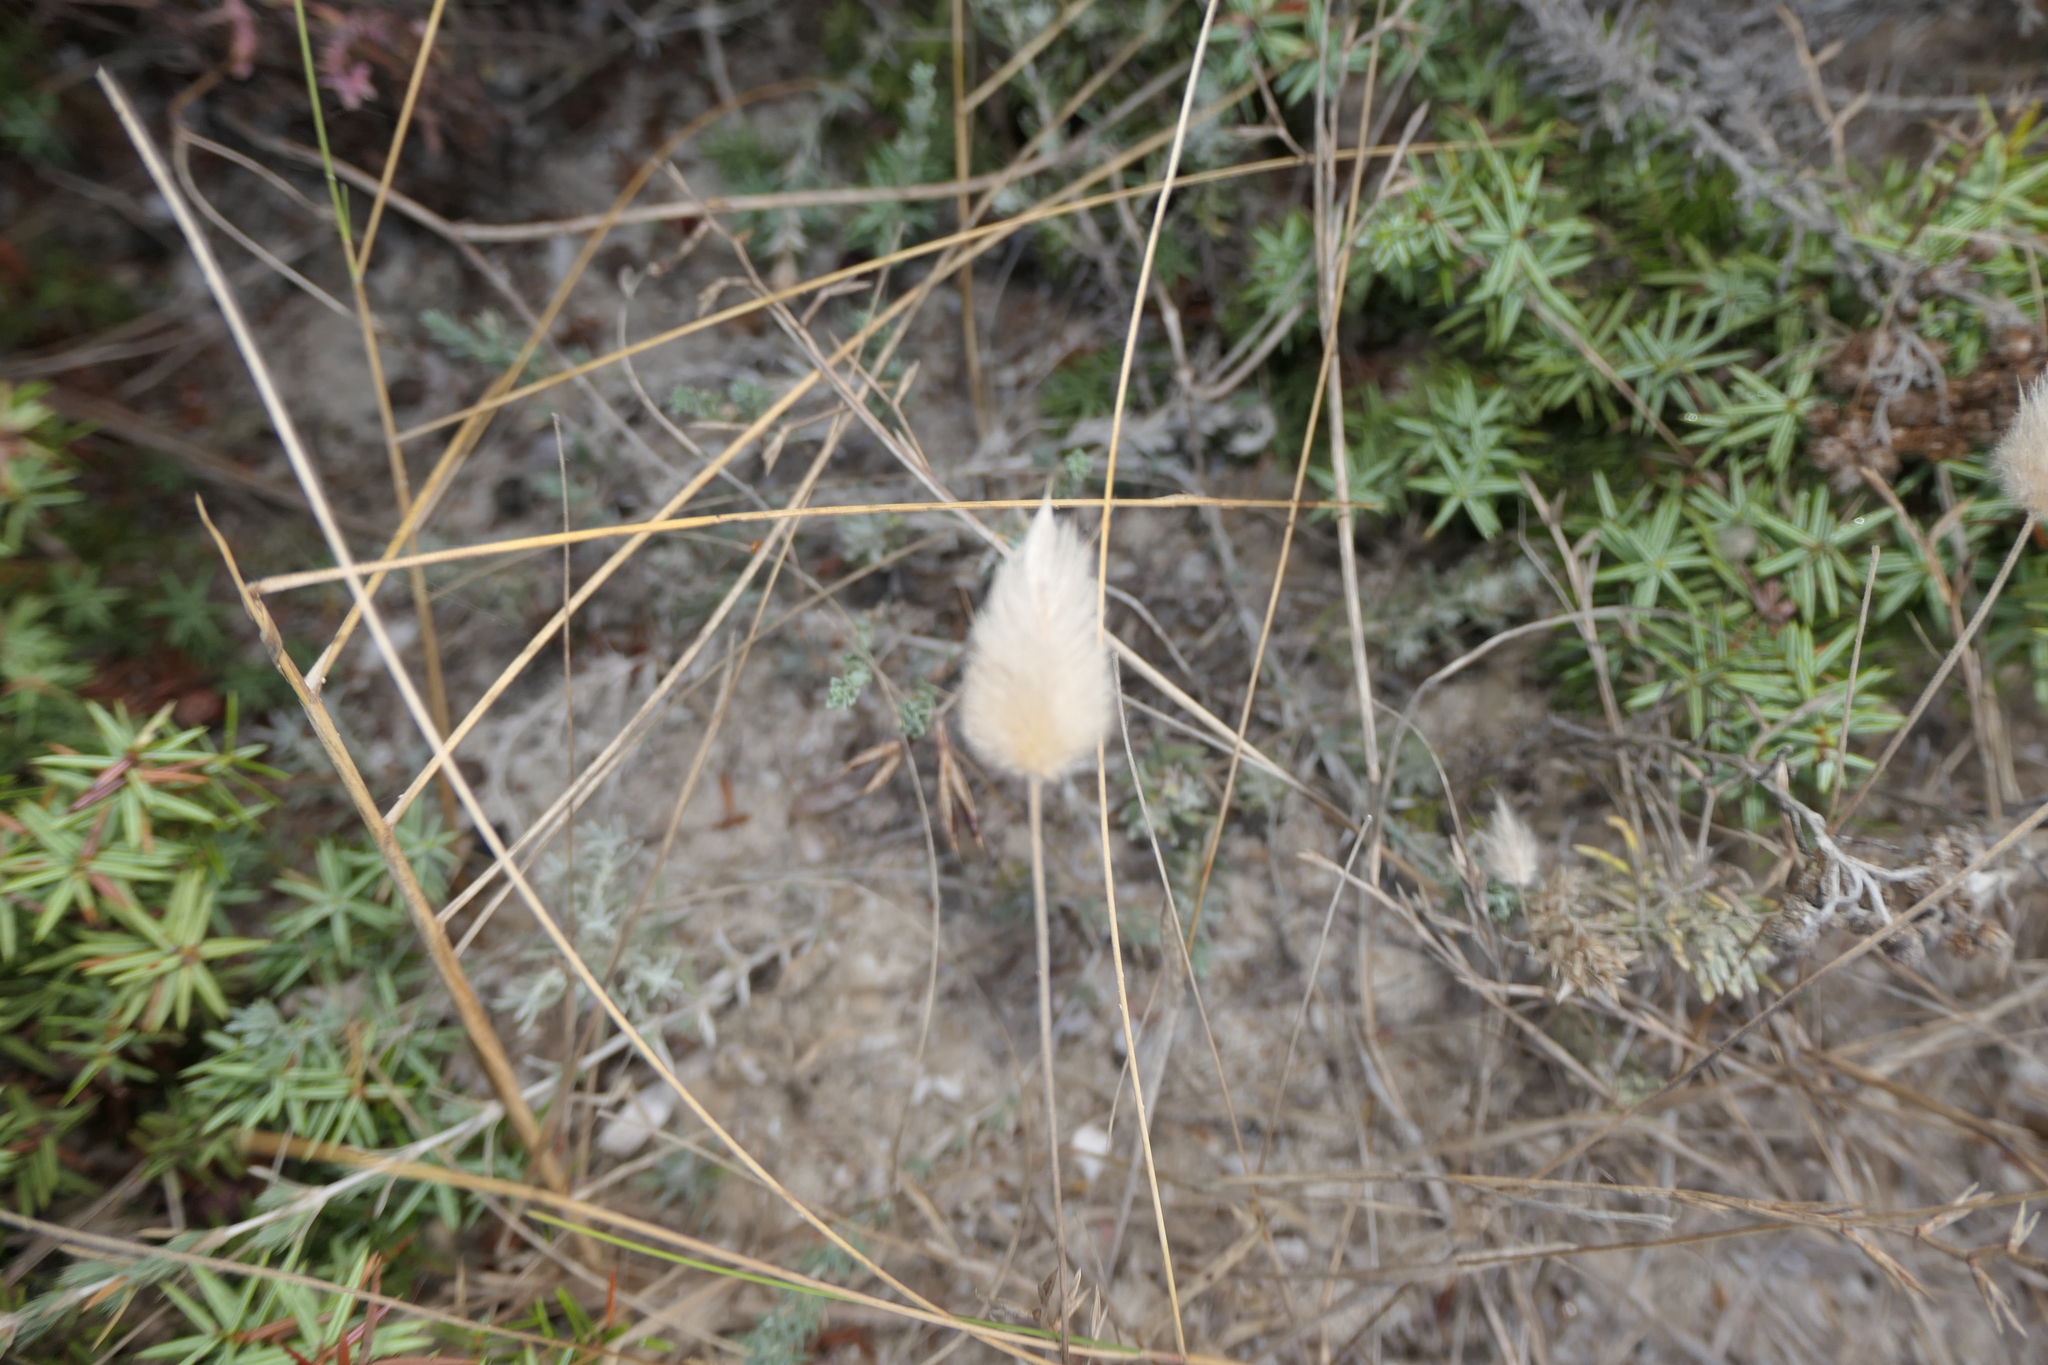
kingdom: Plantae
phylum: Tracheophyta
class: Liliopsida
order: Poales
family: Poaceae
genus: Lagurus
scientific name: Lagurus ovatus
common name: Hare's-tail
